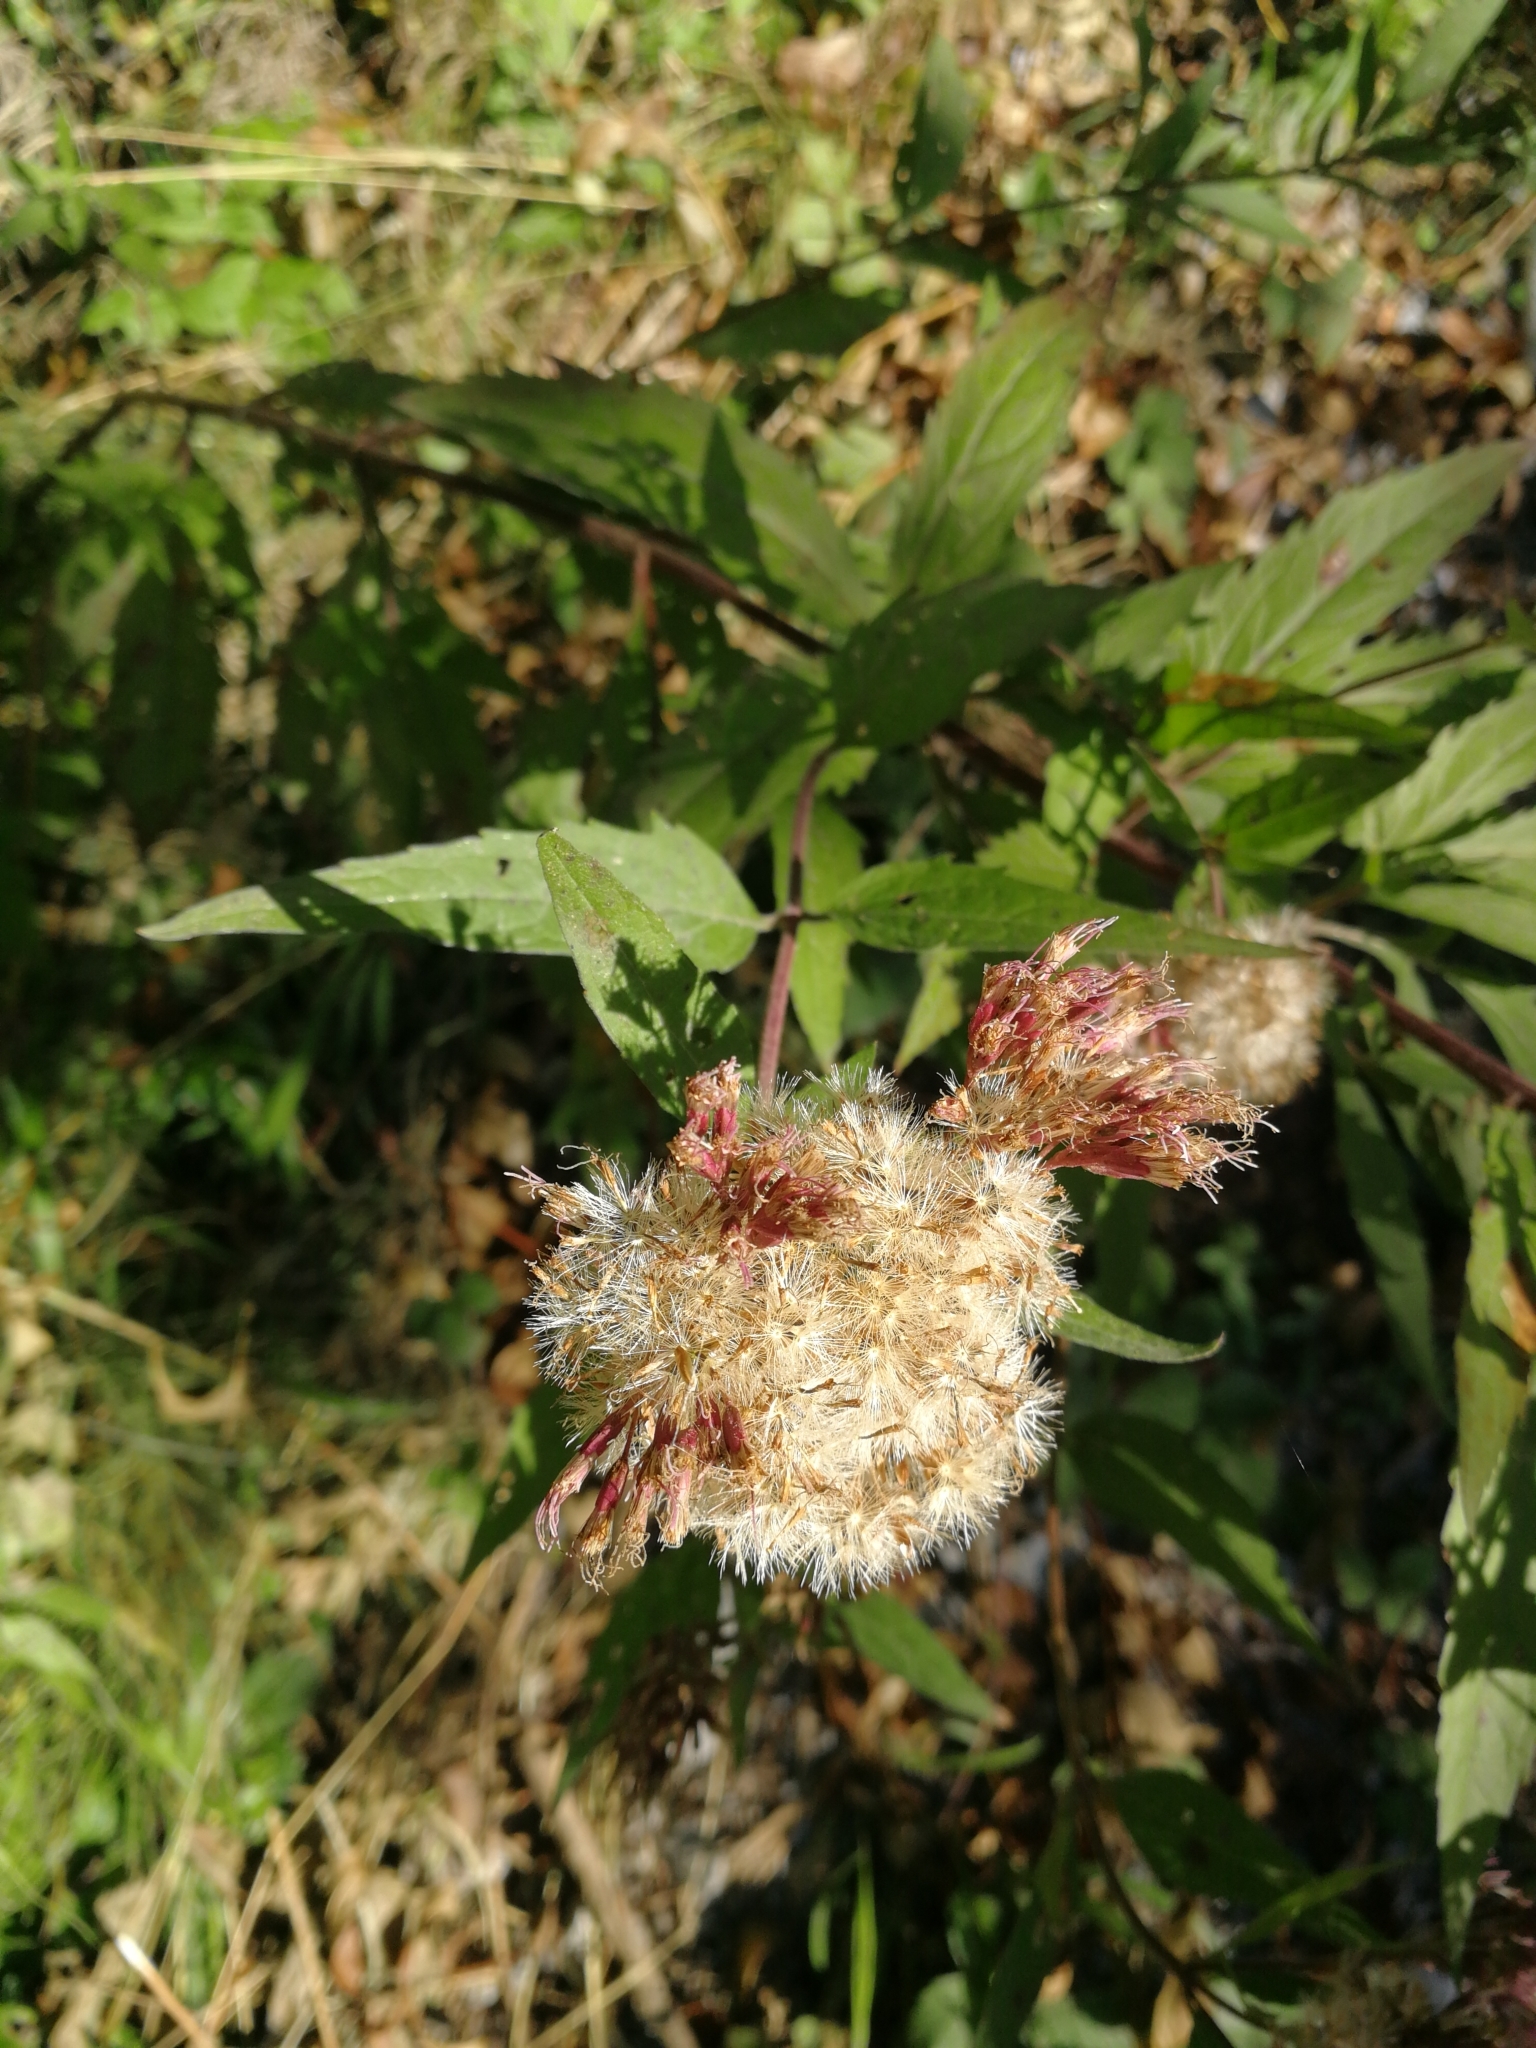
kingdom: Plantae
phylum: Tracheophyta
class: Magnoliopsida
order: Asterales
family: Asteraceae
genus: Eupatorium
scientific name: Eupatorium cannabinum
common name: Hemp-agrimony
